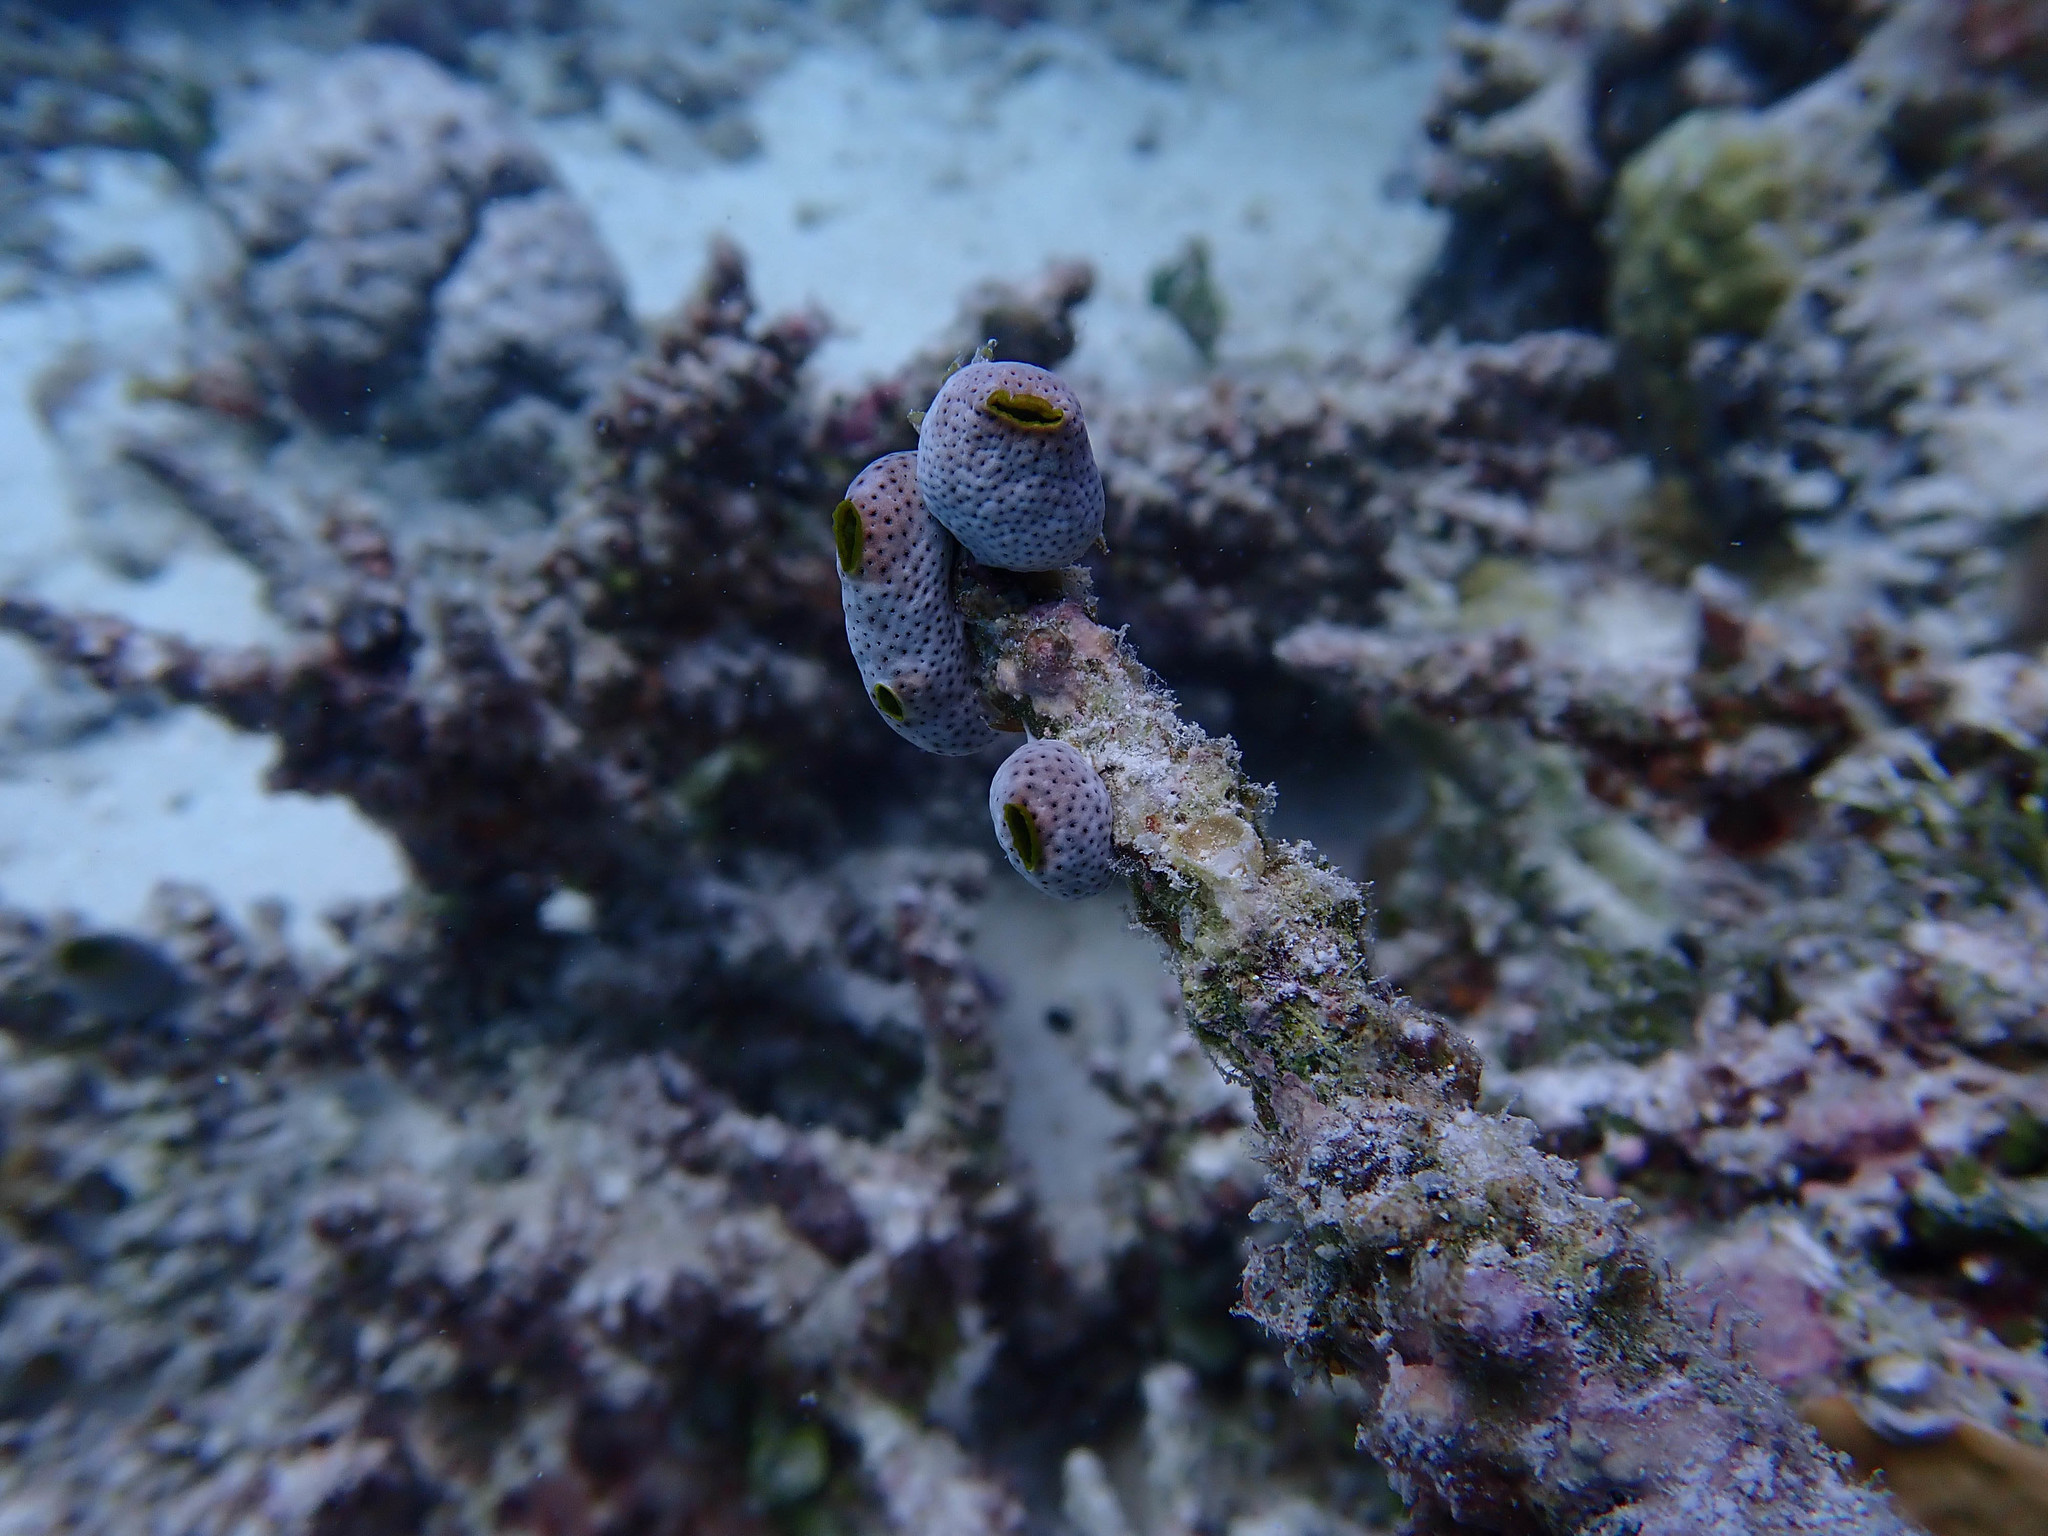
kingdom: Animalia
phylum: Chordata
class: Ascidiacea
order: Aplousobranchia
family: Didemnidae
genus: Didemnum
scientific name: Didemnum molle
